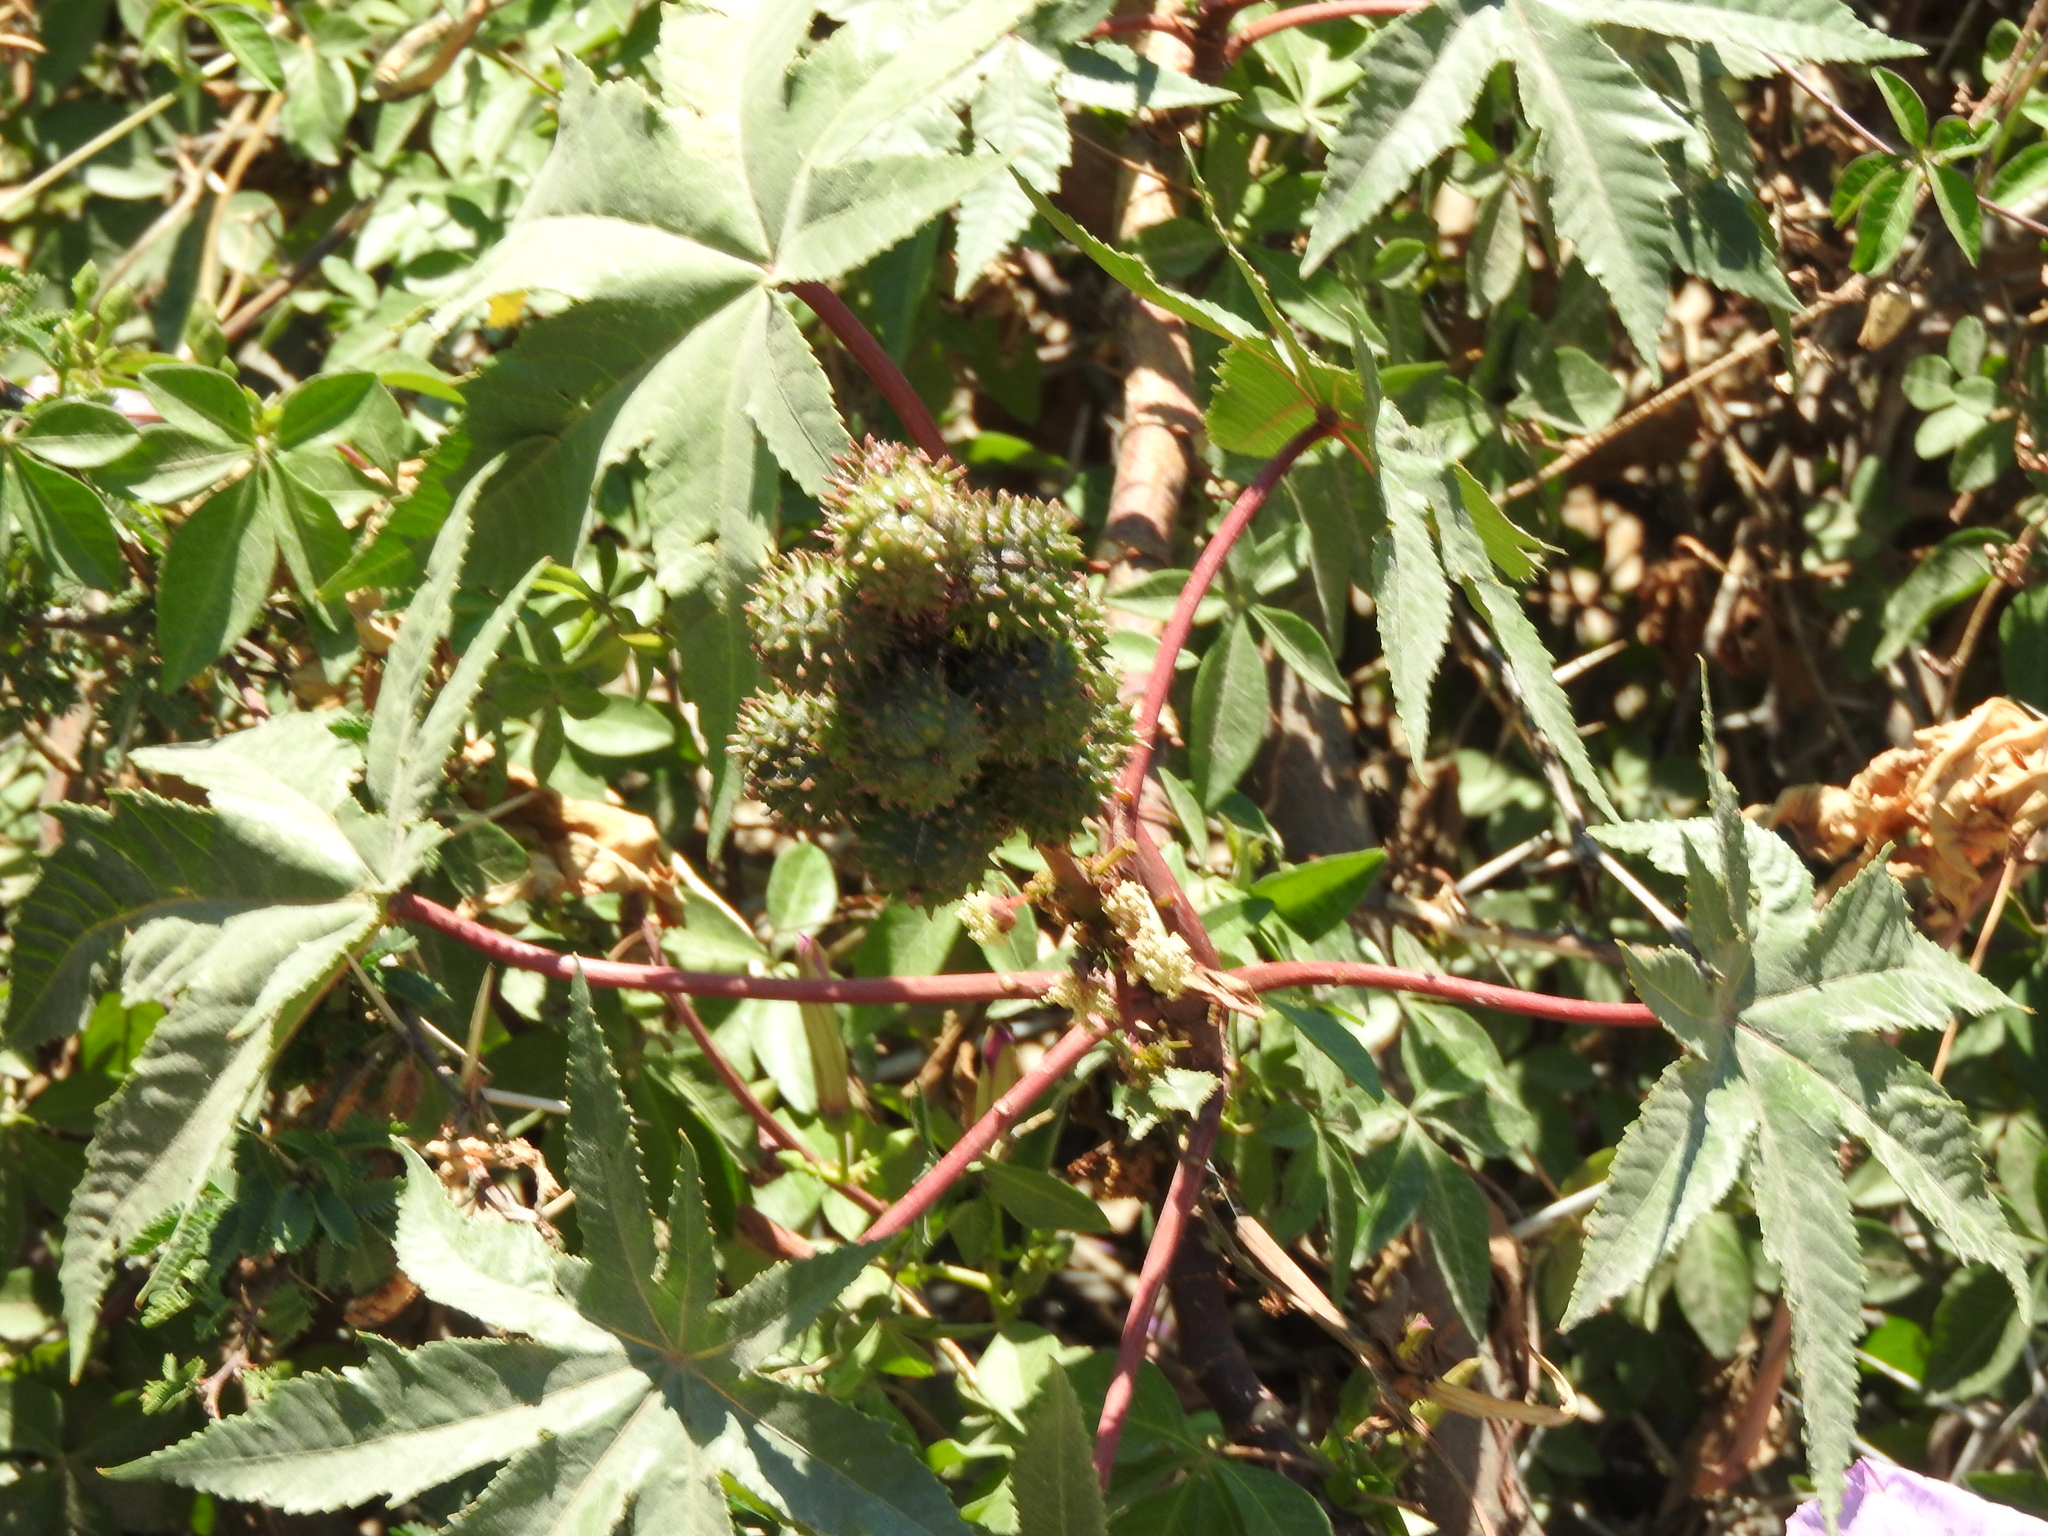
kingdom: Plantae
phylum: Tracheophyta
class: Magnoliopsida
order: Malpighiales
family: Euphorbiaceae
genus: Ricinus
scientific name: Ricinus communis
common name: Castor-oil-plant
